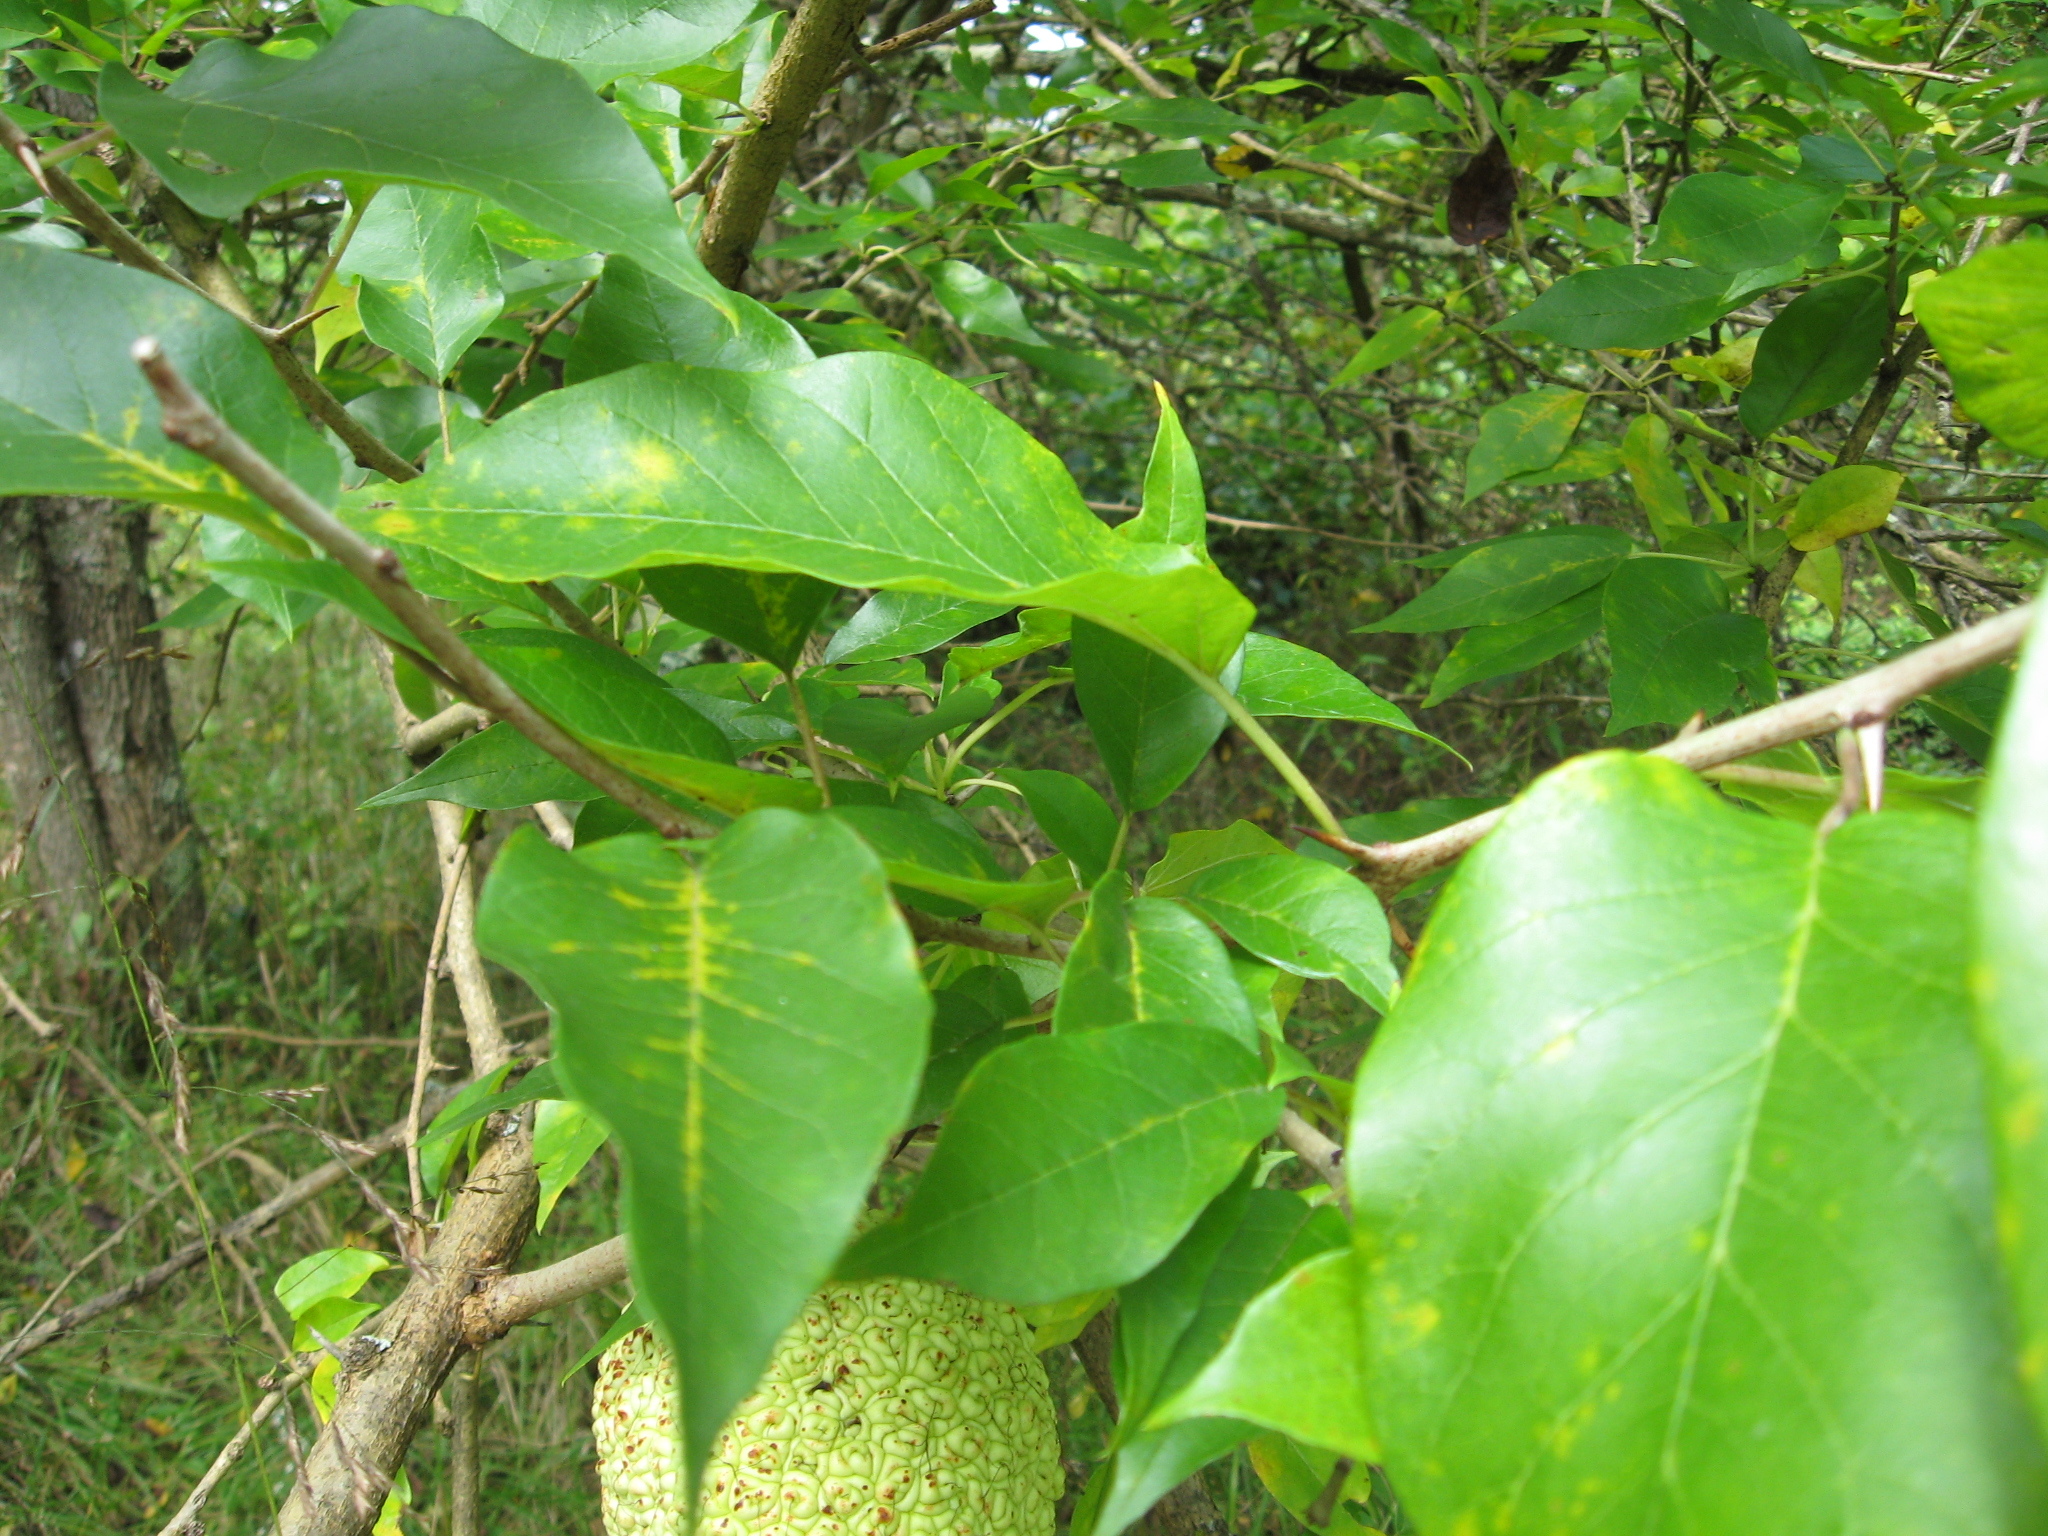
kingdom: Plantae
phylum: Tracheophyta
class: Magnoliopsida
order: Rosales
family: Moraceae
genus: Maclura
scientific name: Maclura pomifera
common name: Osage-orange
